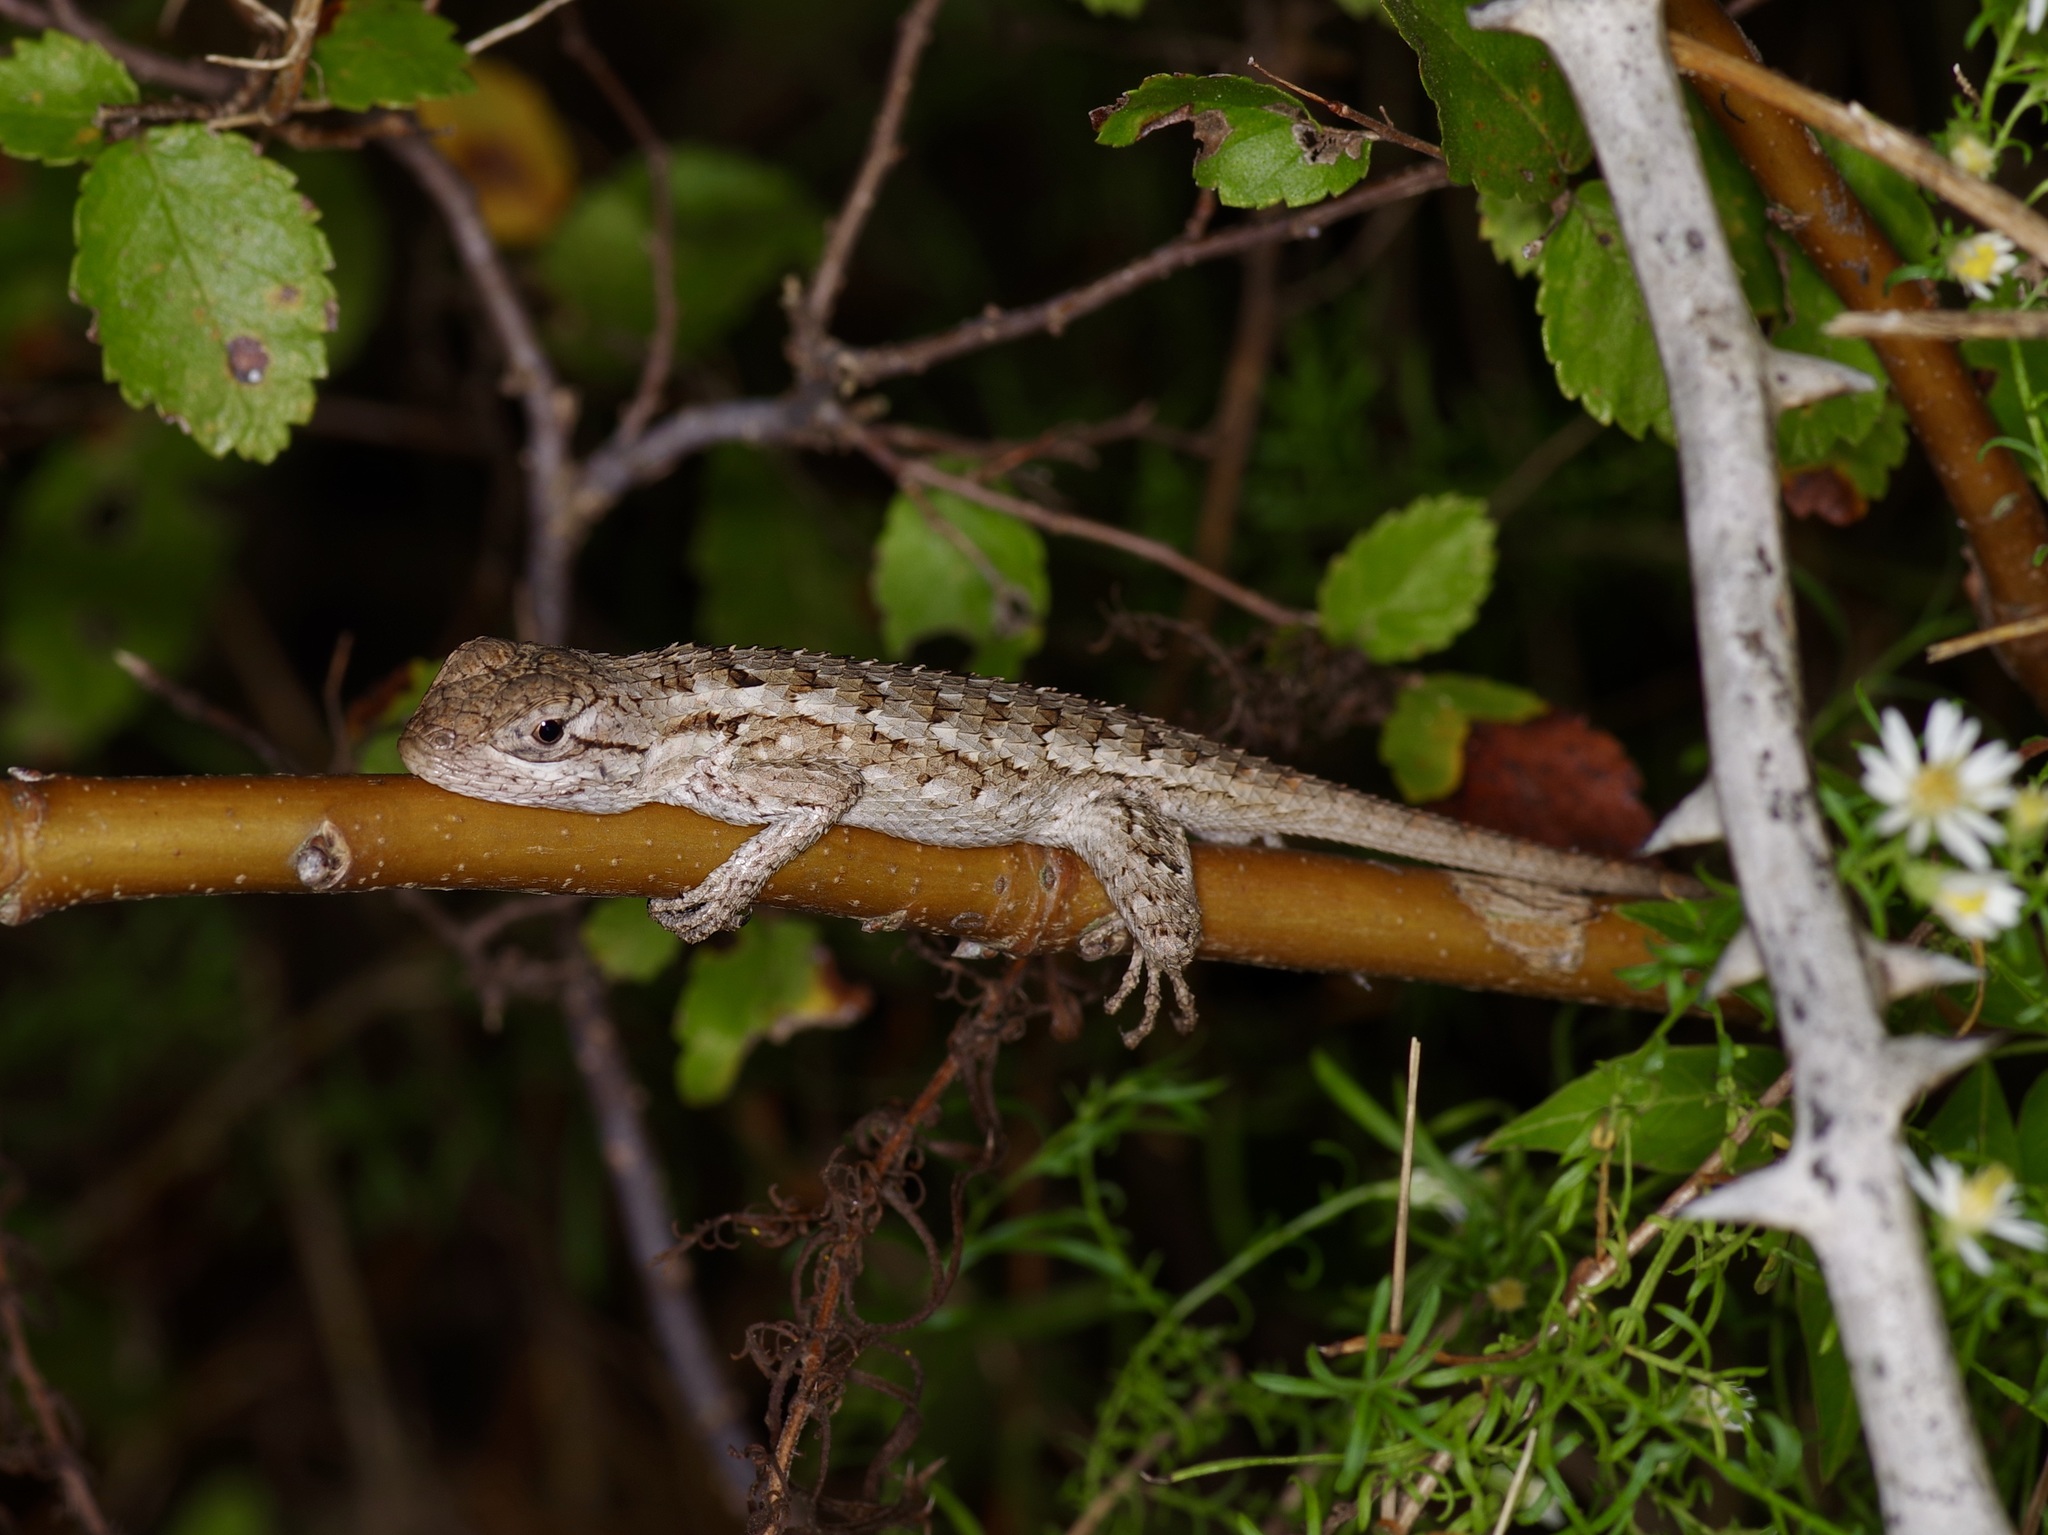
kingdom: Animalia
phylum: Chordata
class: Squamata
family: Phrynosomatidae
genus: Sceloporus
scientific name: Sceloporus olivaceus
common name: Texas spiny lizard
